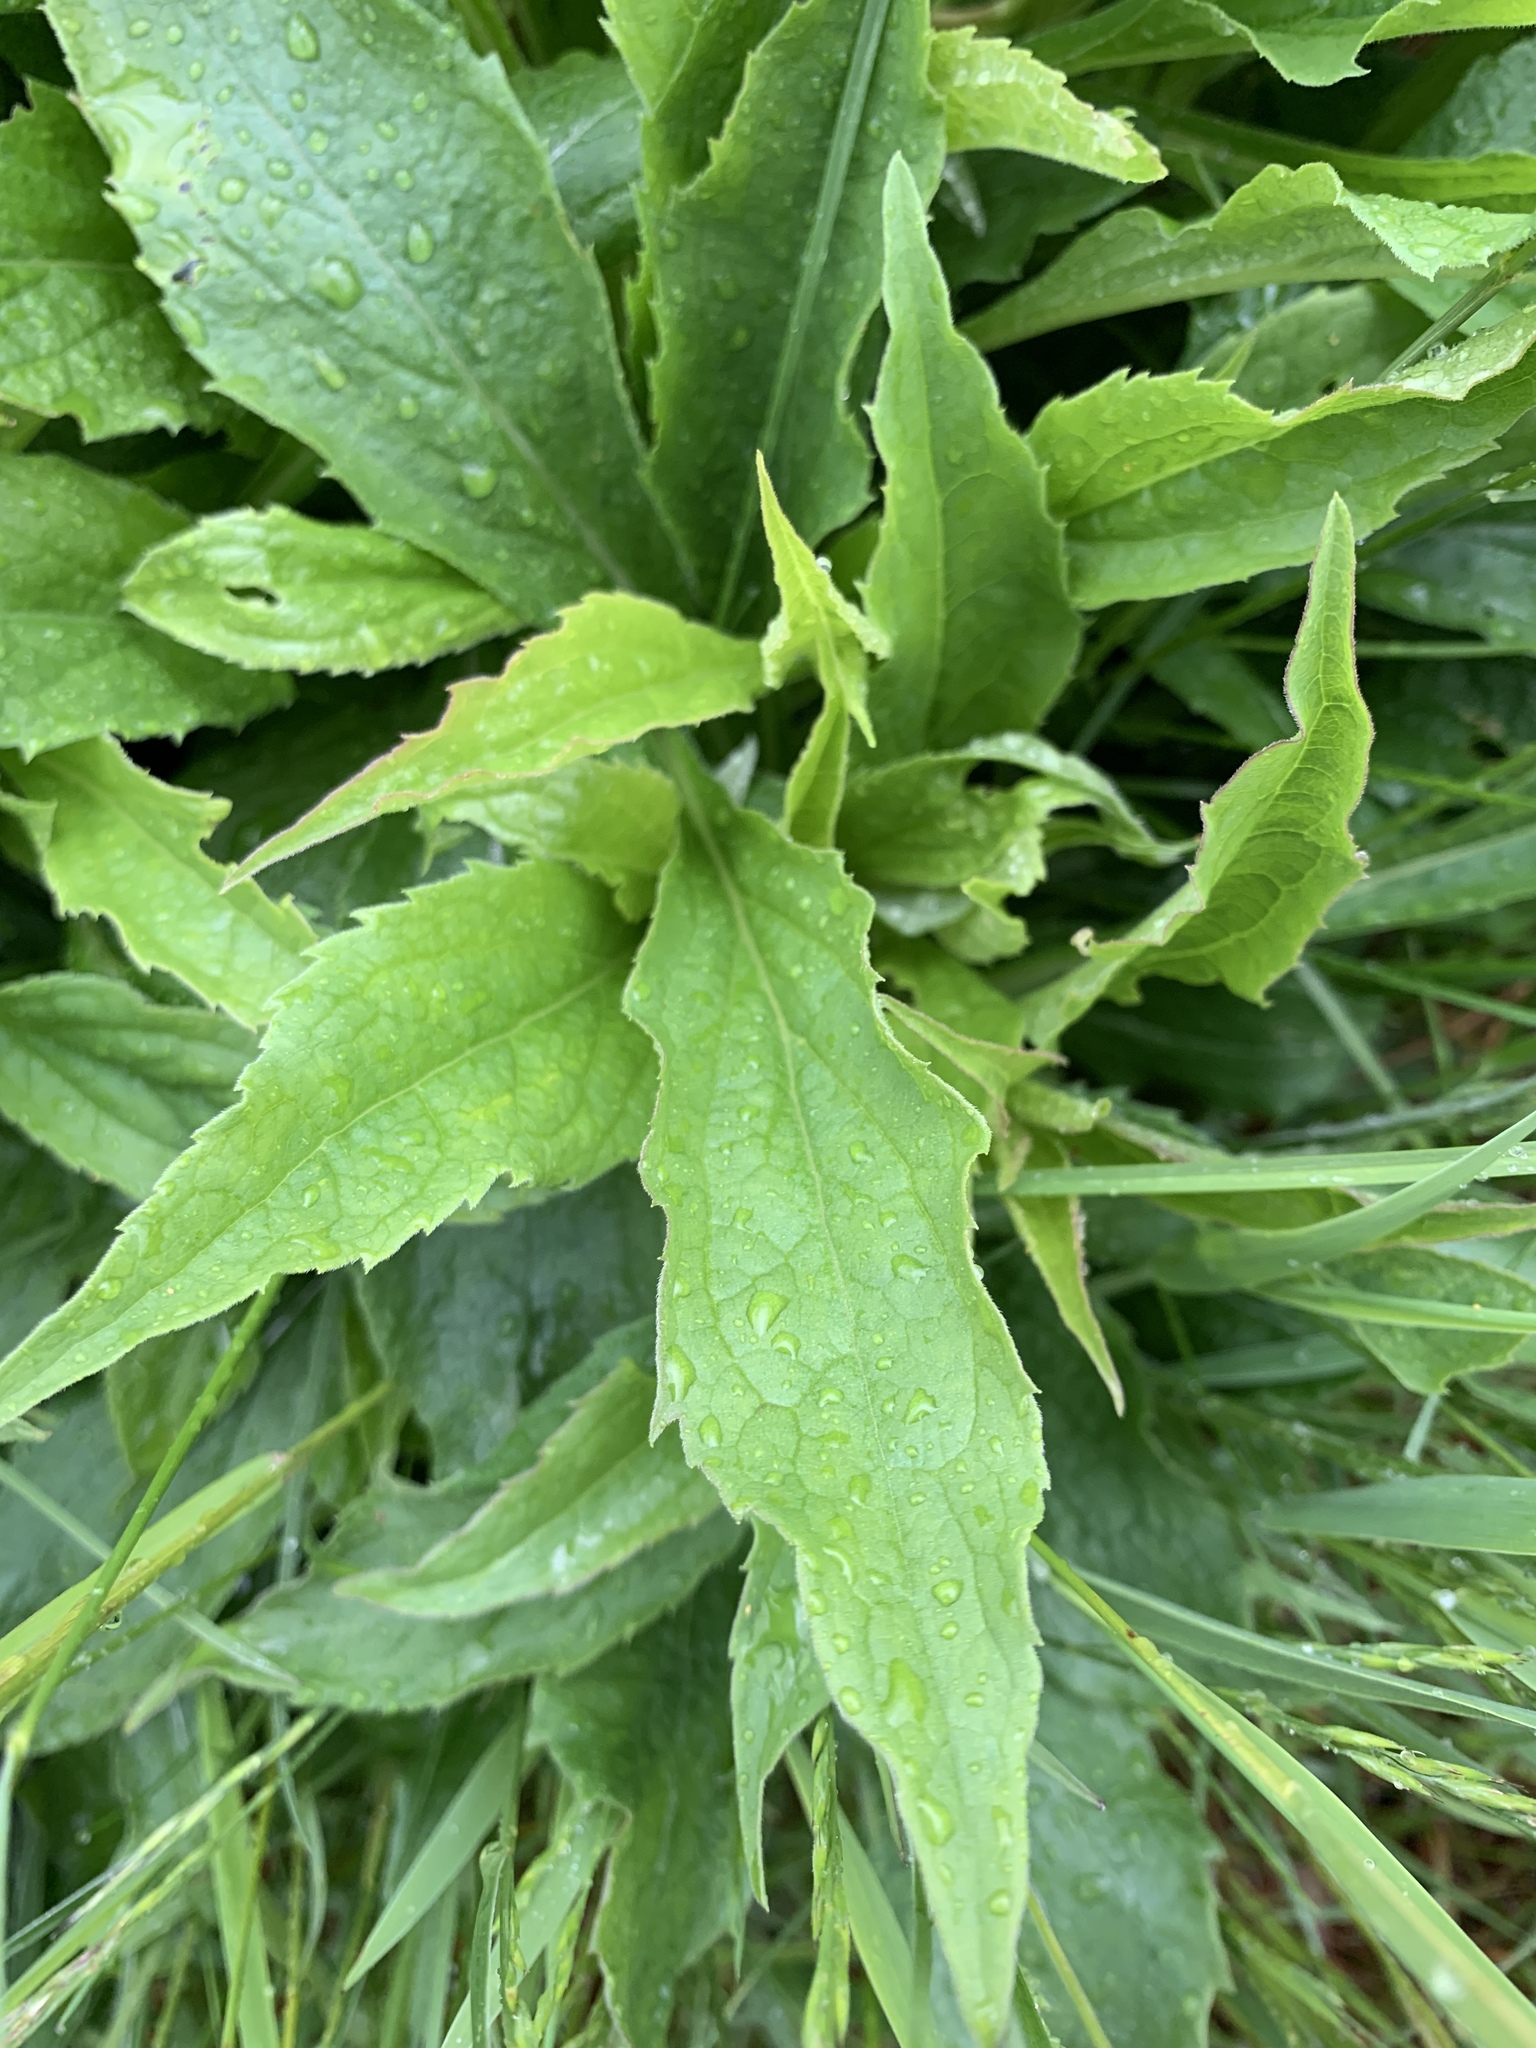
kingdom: Plantae
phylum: Tracheophyta
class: Magnoliopsida
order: Asterales
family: Asteraceae
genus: Solidago
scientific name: Solidago virgaurea
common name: Goldenrod
